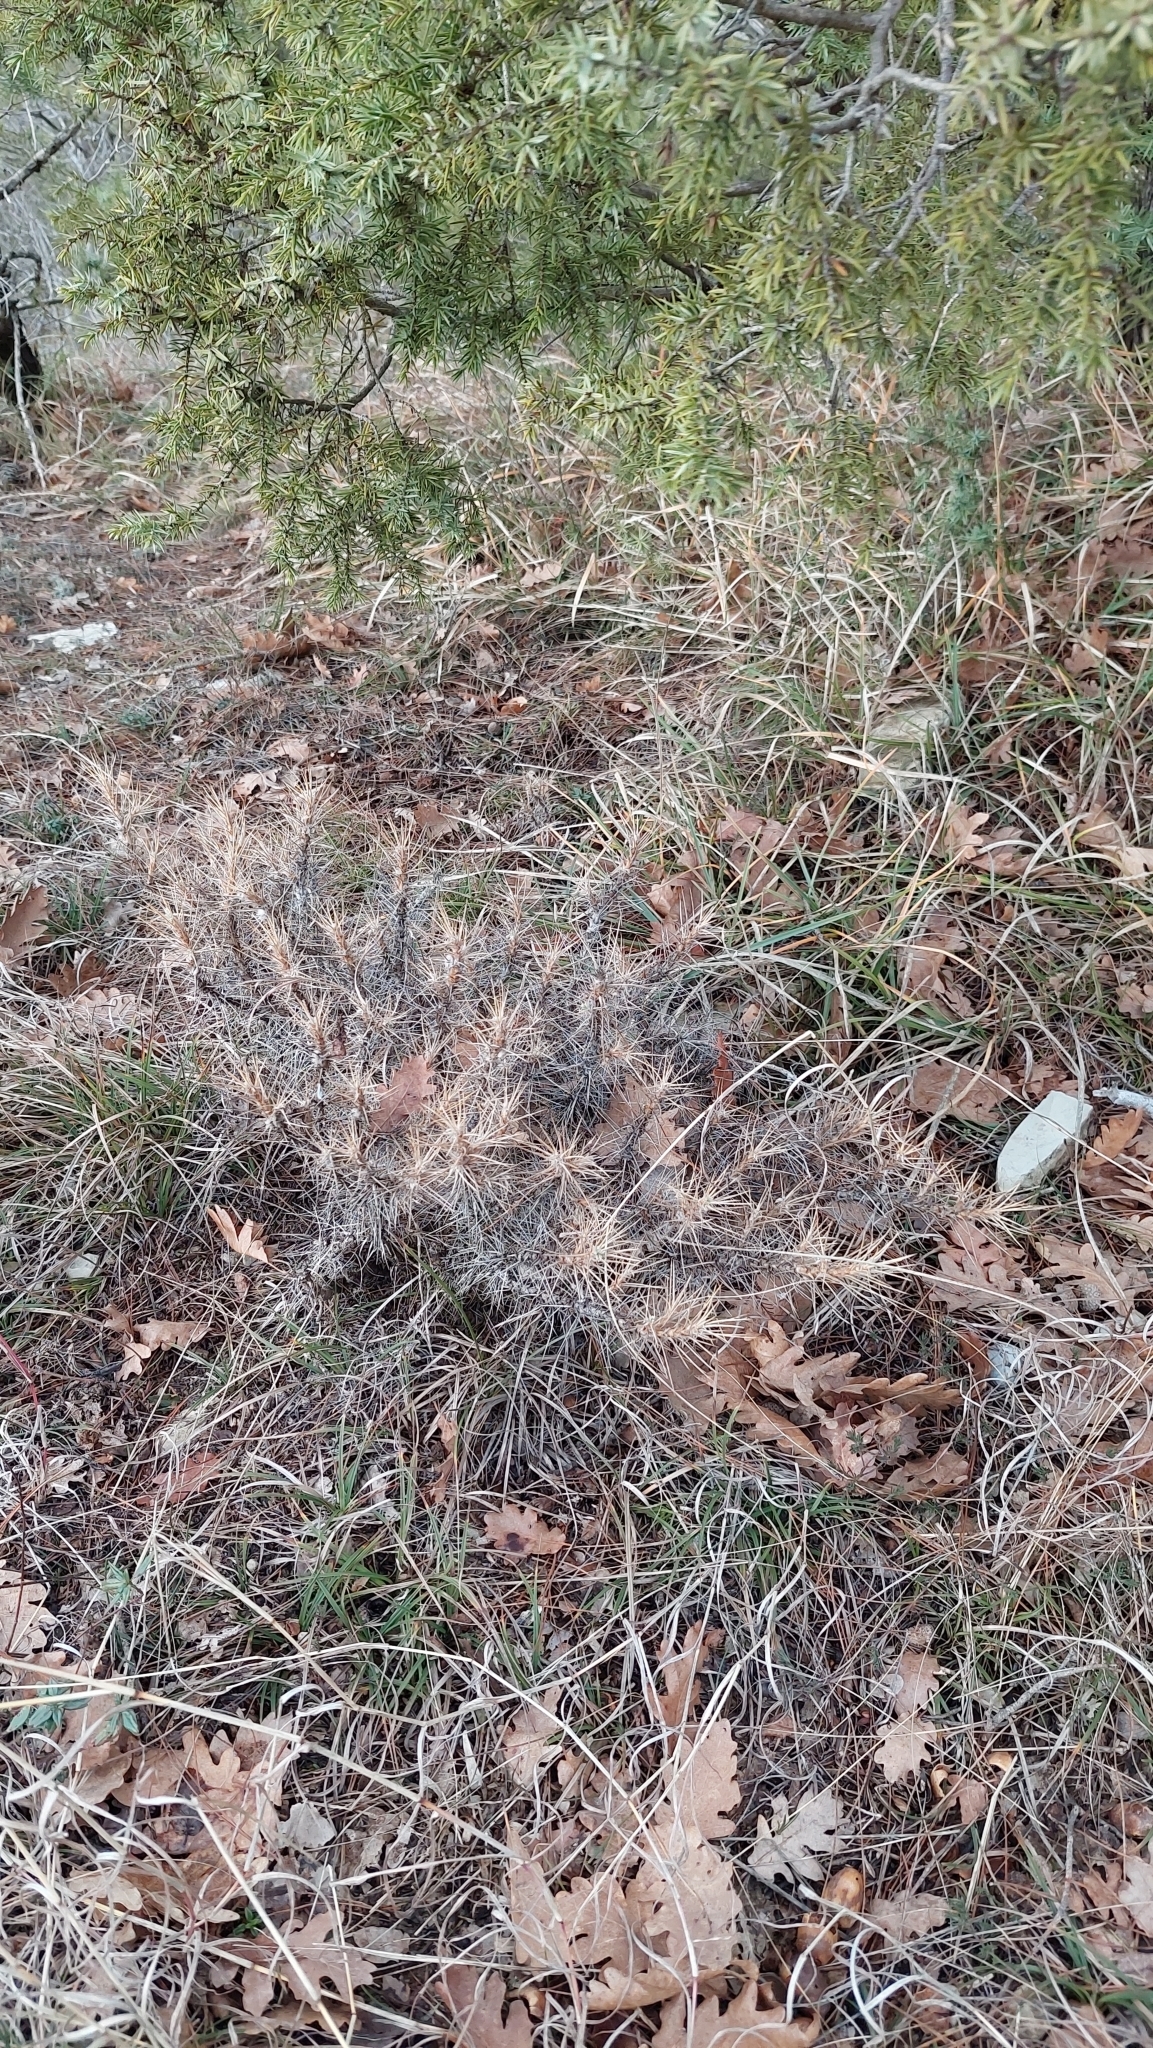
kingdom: Plantae
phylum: Tracheophyta
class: Magnoliopsida
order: Fabales
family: Fabaceae
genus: Astragalus
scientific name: Astragalus arnacanthoides
